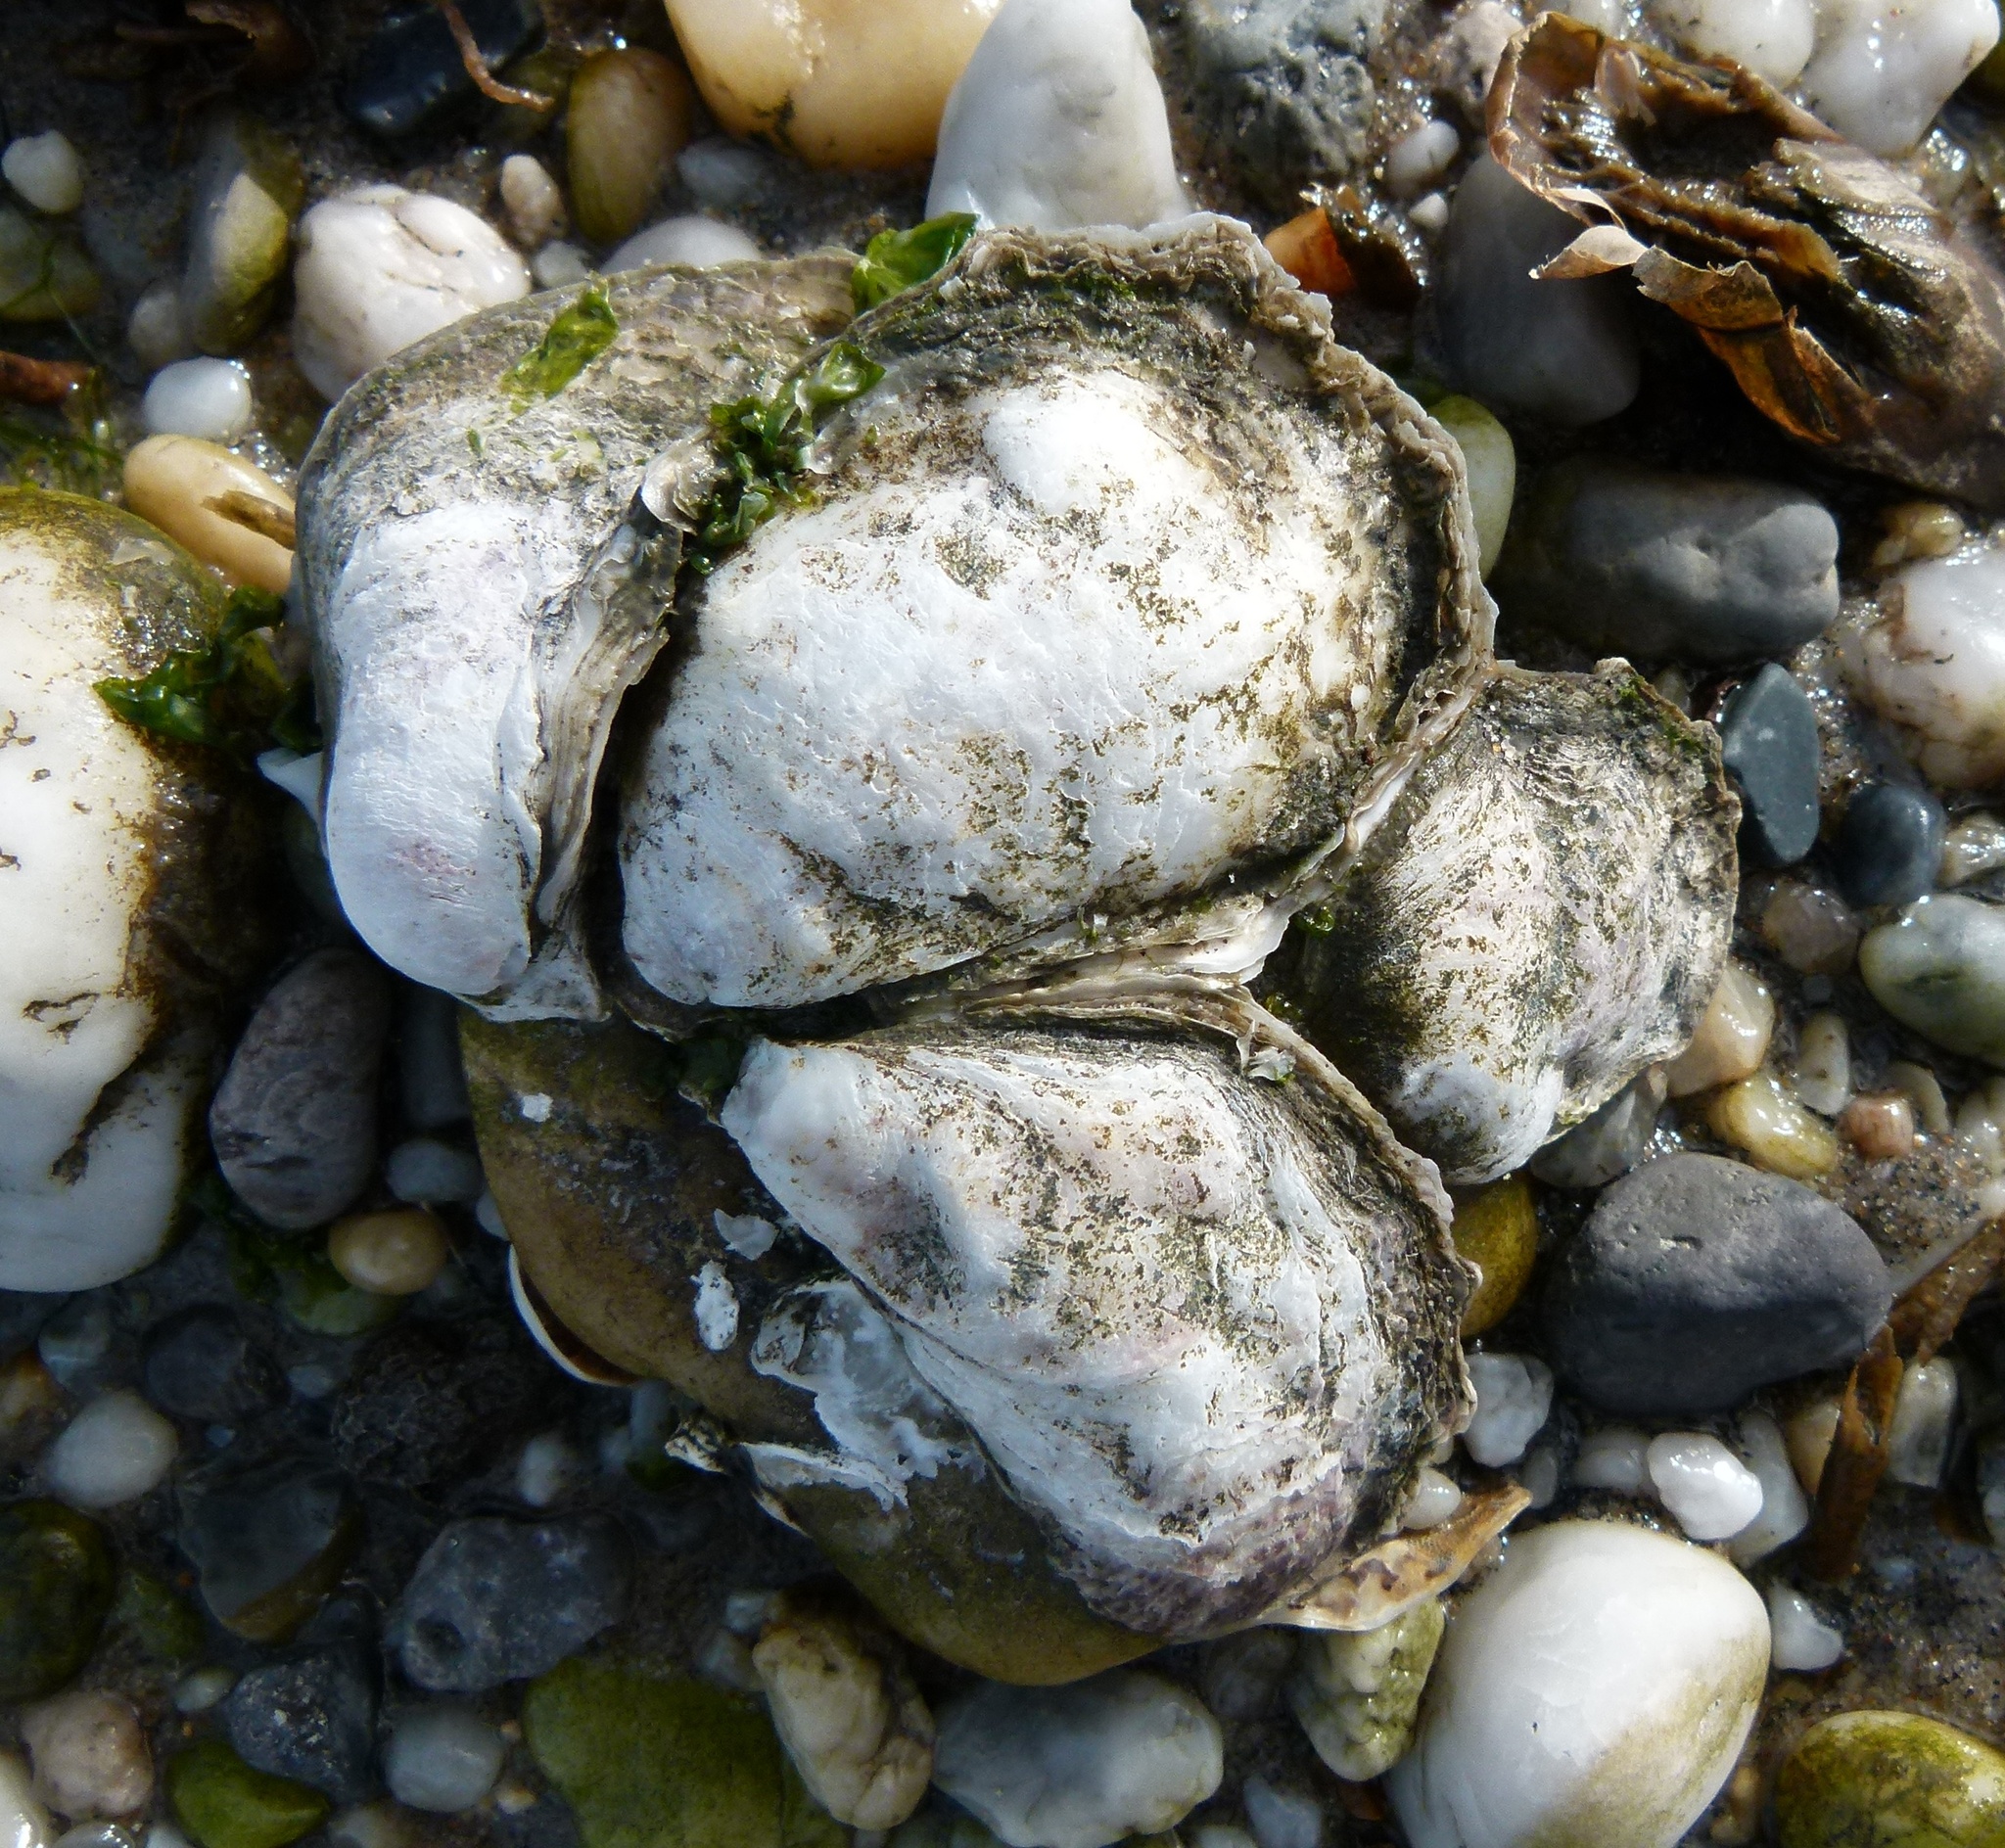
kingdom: Animalia
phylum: Mollusca
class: Bivalvia
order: Ostreida
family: Ostreidae
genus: Crassostrea
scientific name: Crassostrea virginica
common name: American oyster
